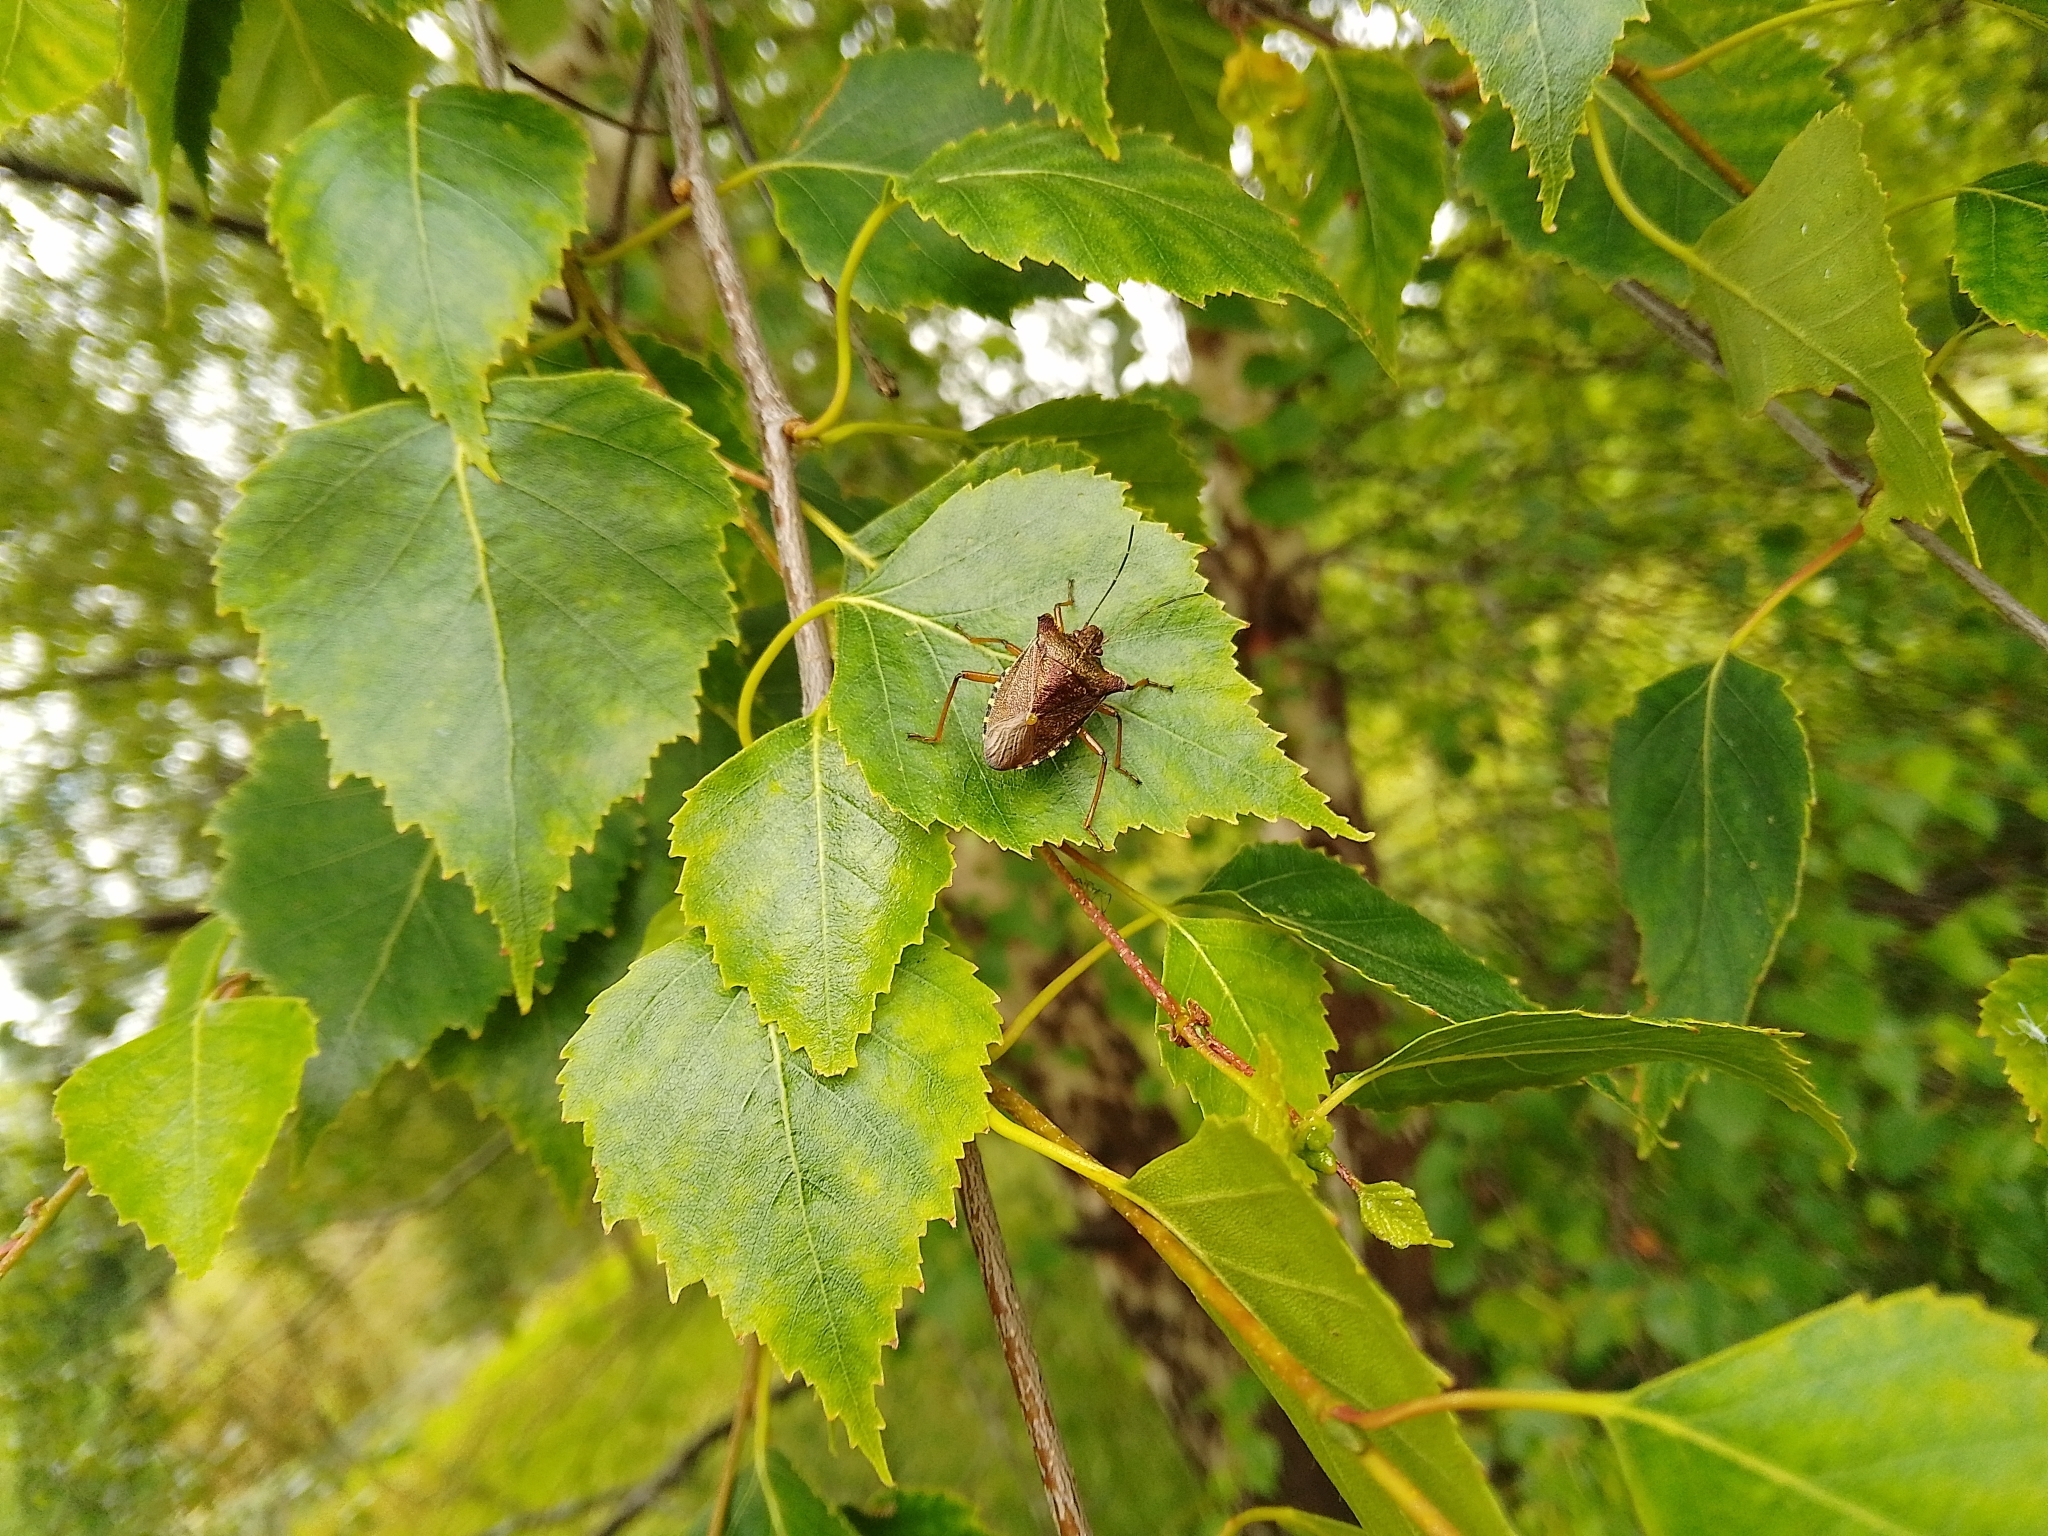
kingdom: Animalia
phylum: Arthropoda
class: Insecta
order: Hemiptera
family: Pentatomidae
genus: Pentatoma
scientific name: Pentatoma rufipes
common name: Forest bug
